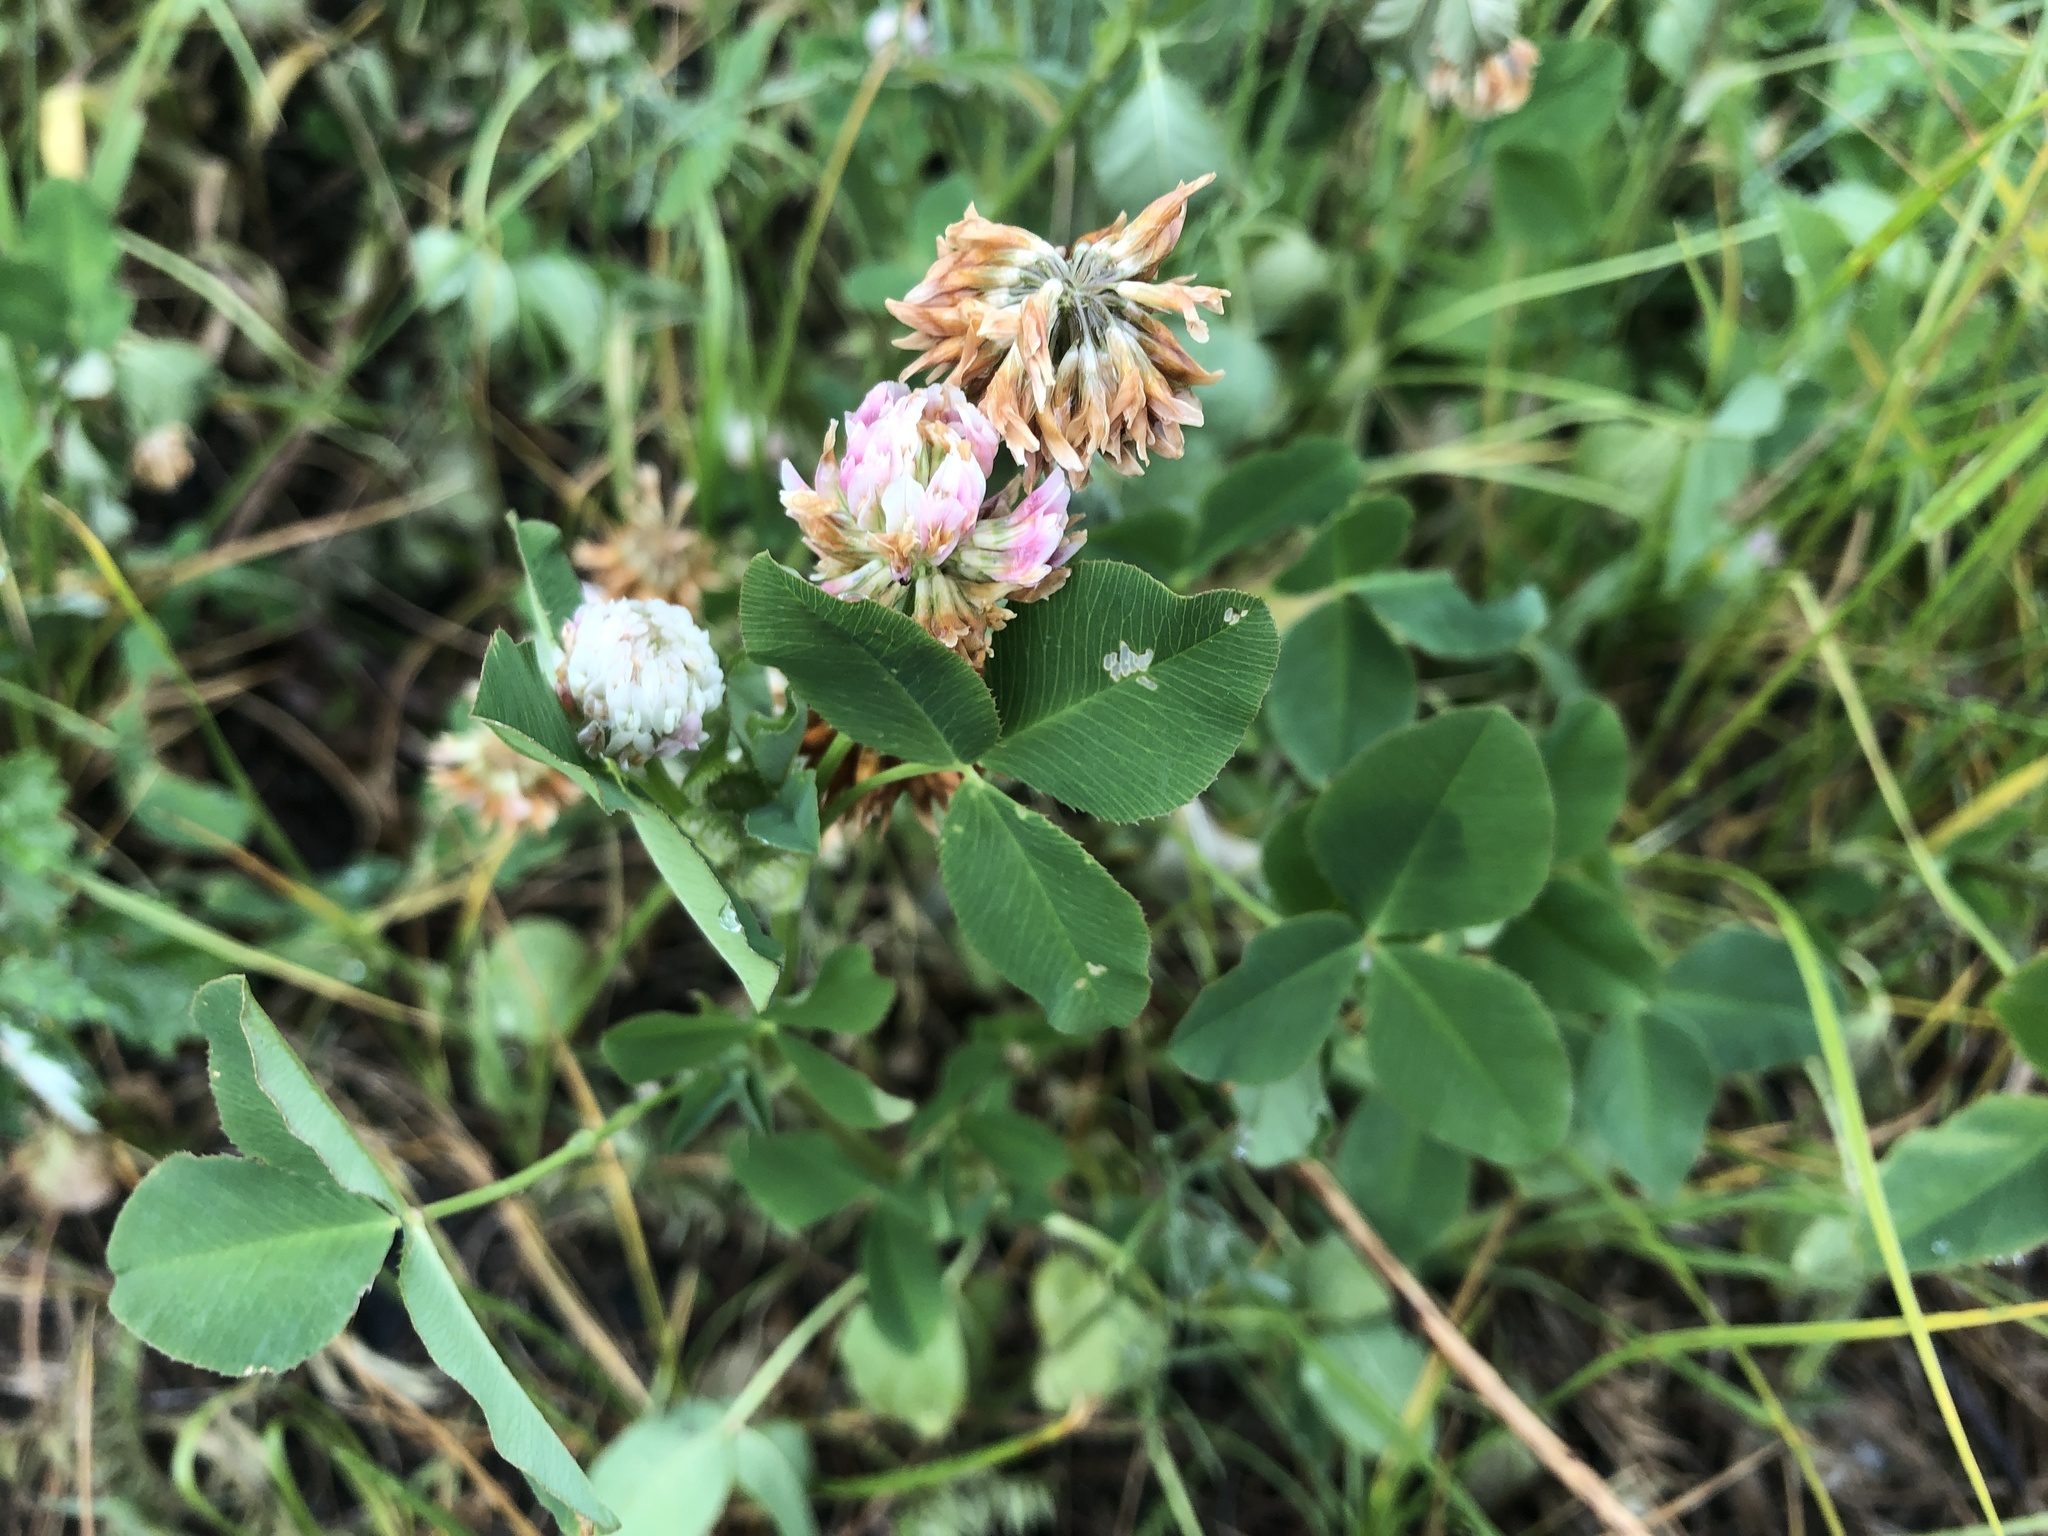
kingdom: Plantae
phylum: Tracheophyta
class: Magnoliopsida
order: Fabales
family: Fabaceae
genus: Trifolium
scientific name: Trifolium hybridum
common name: Alsike clover
